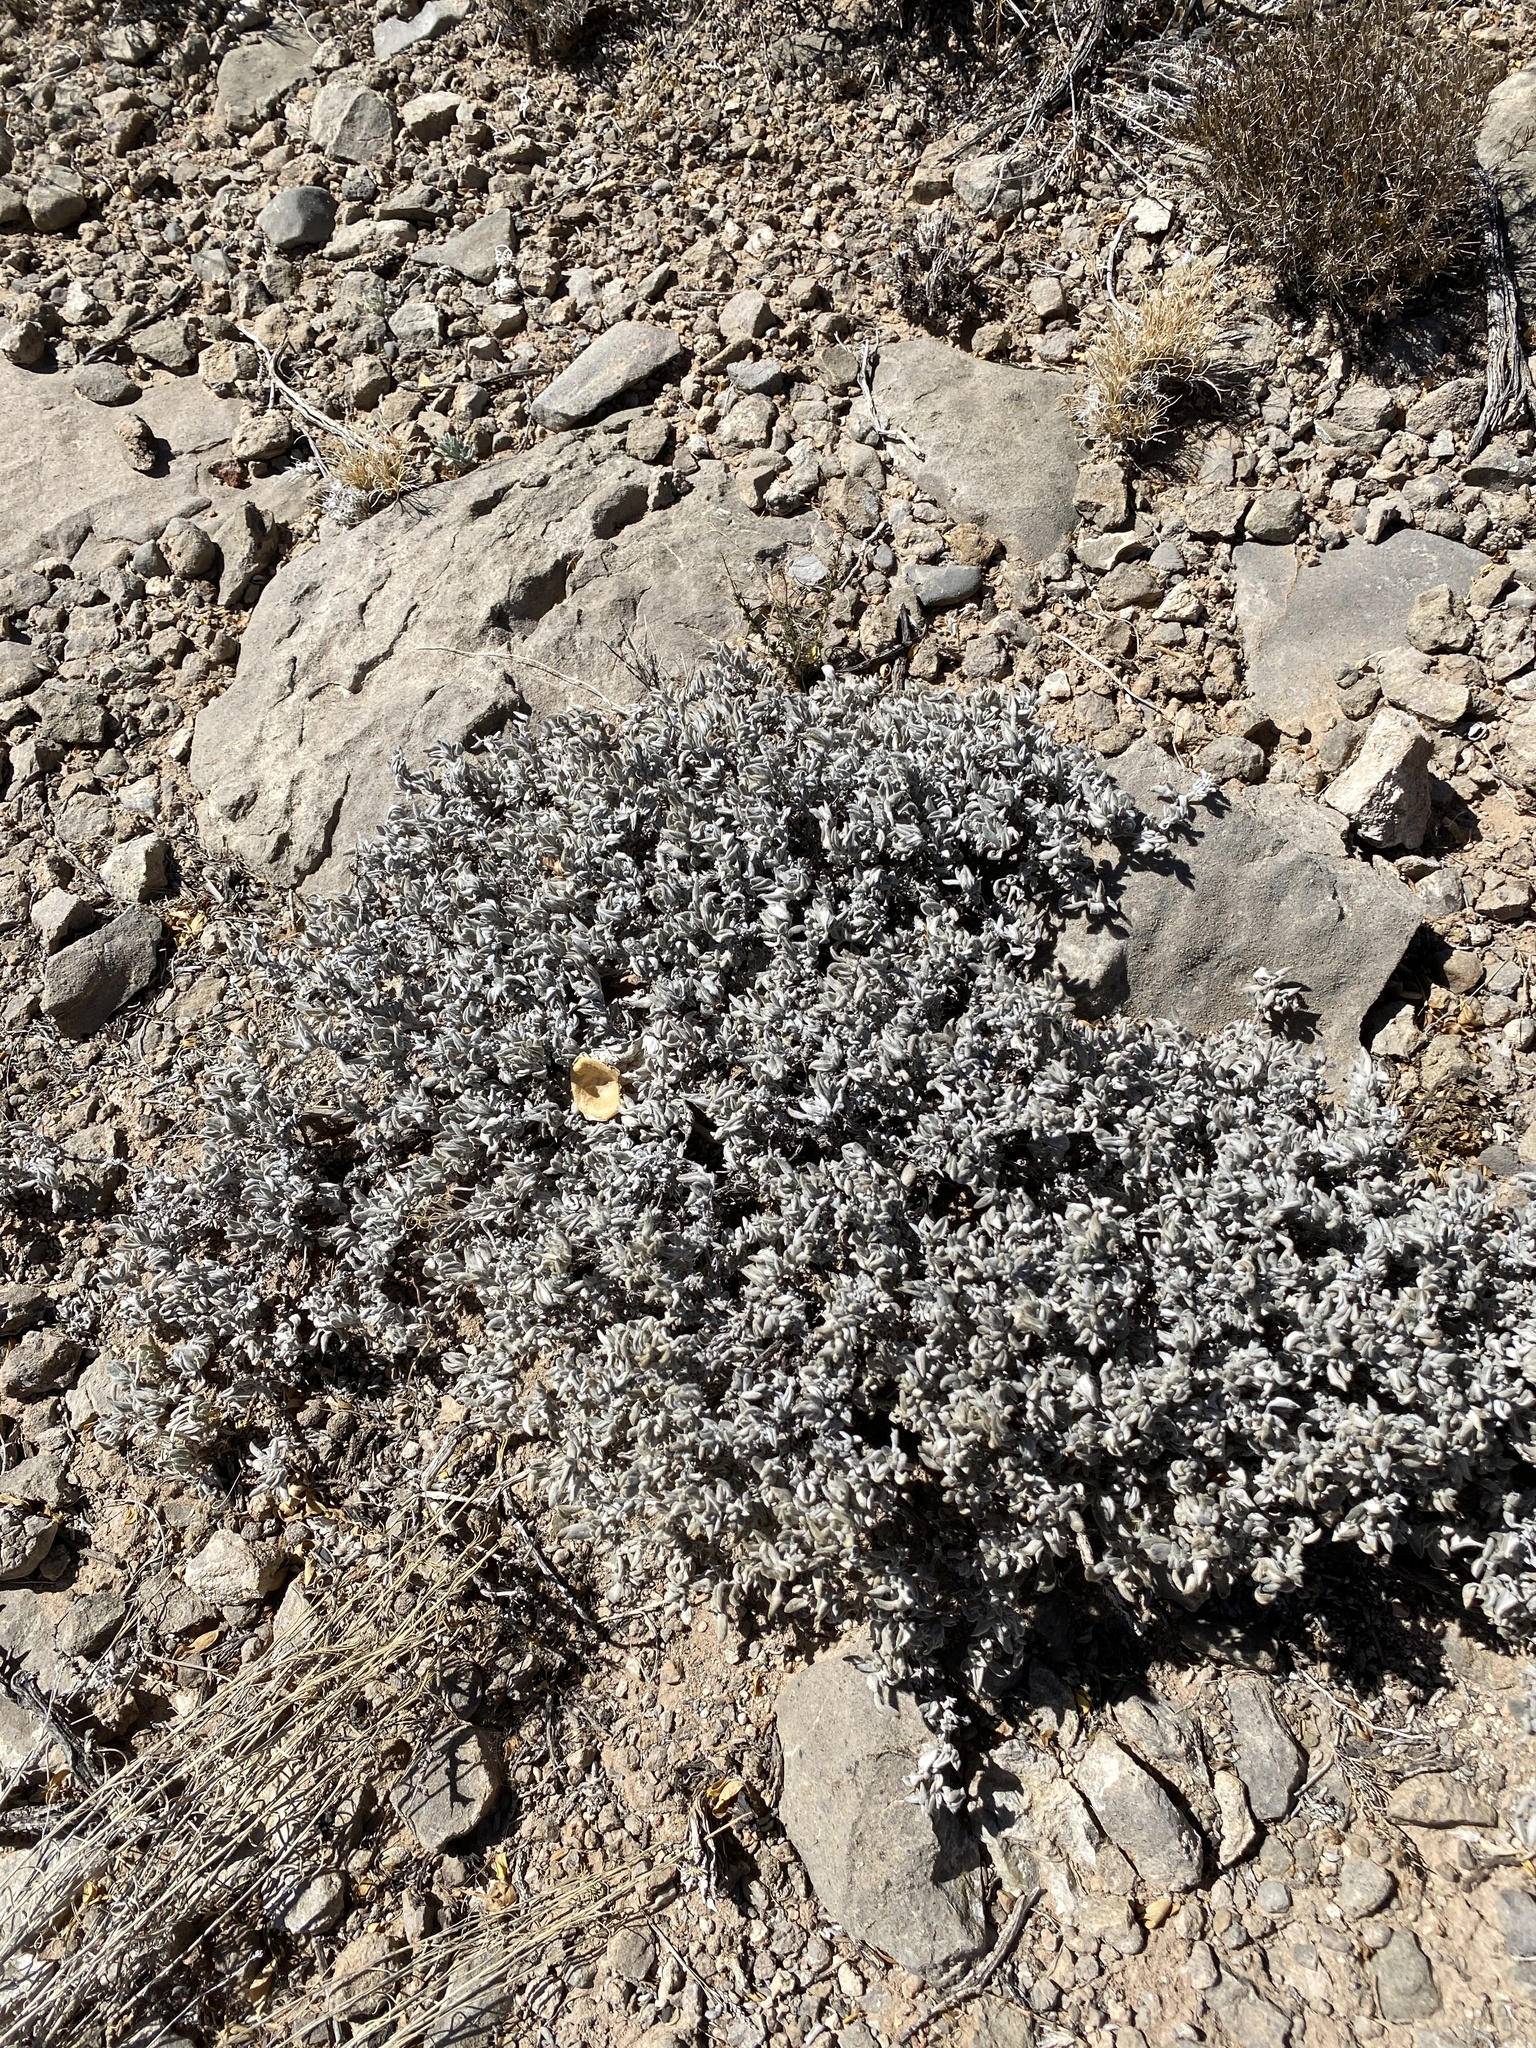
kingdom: Plantae
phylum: Tracheophyta
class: Magnoliopsida
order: Boraginales
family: Ehretiaceae
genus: Tiquilia
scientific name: Tiquilia canescens
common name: Hairy tiquilia
